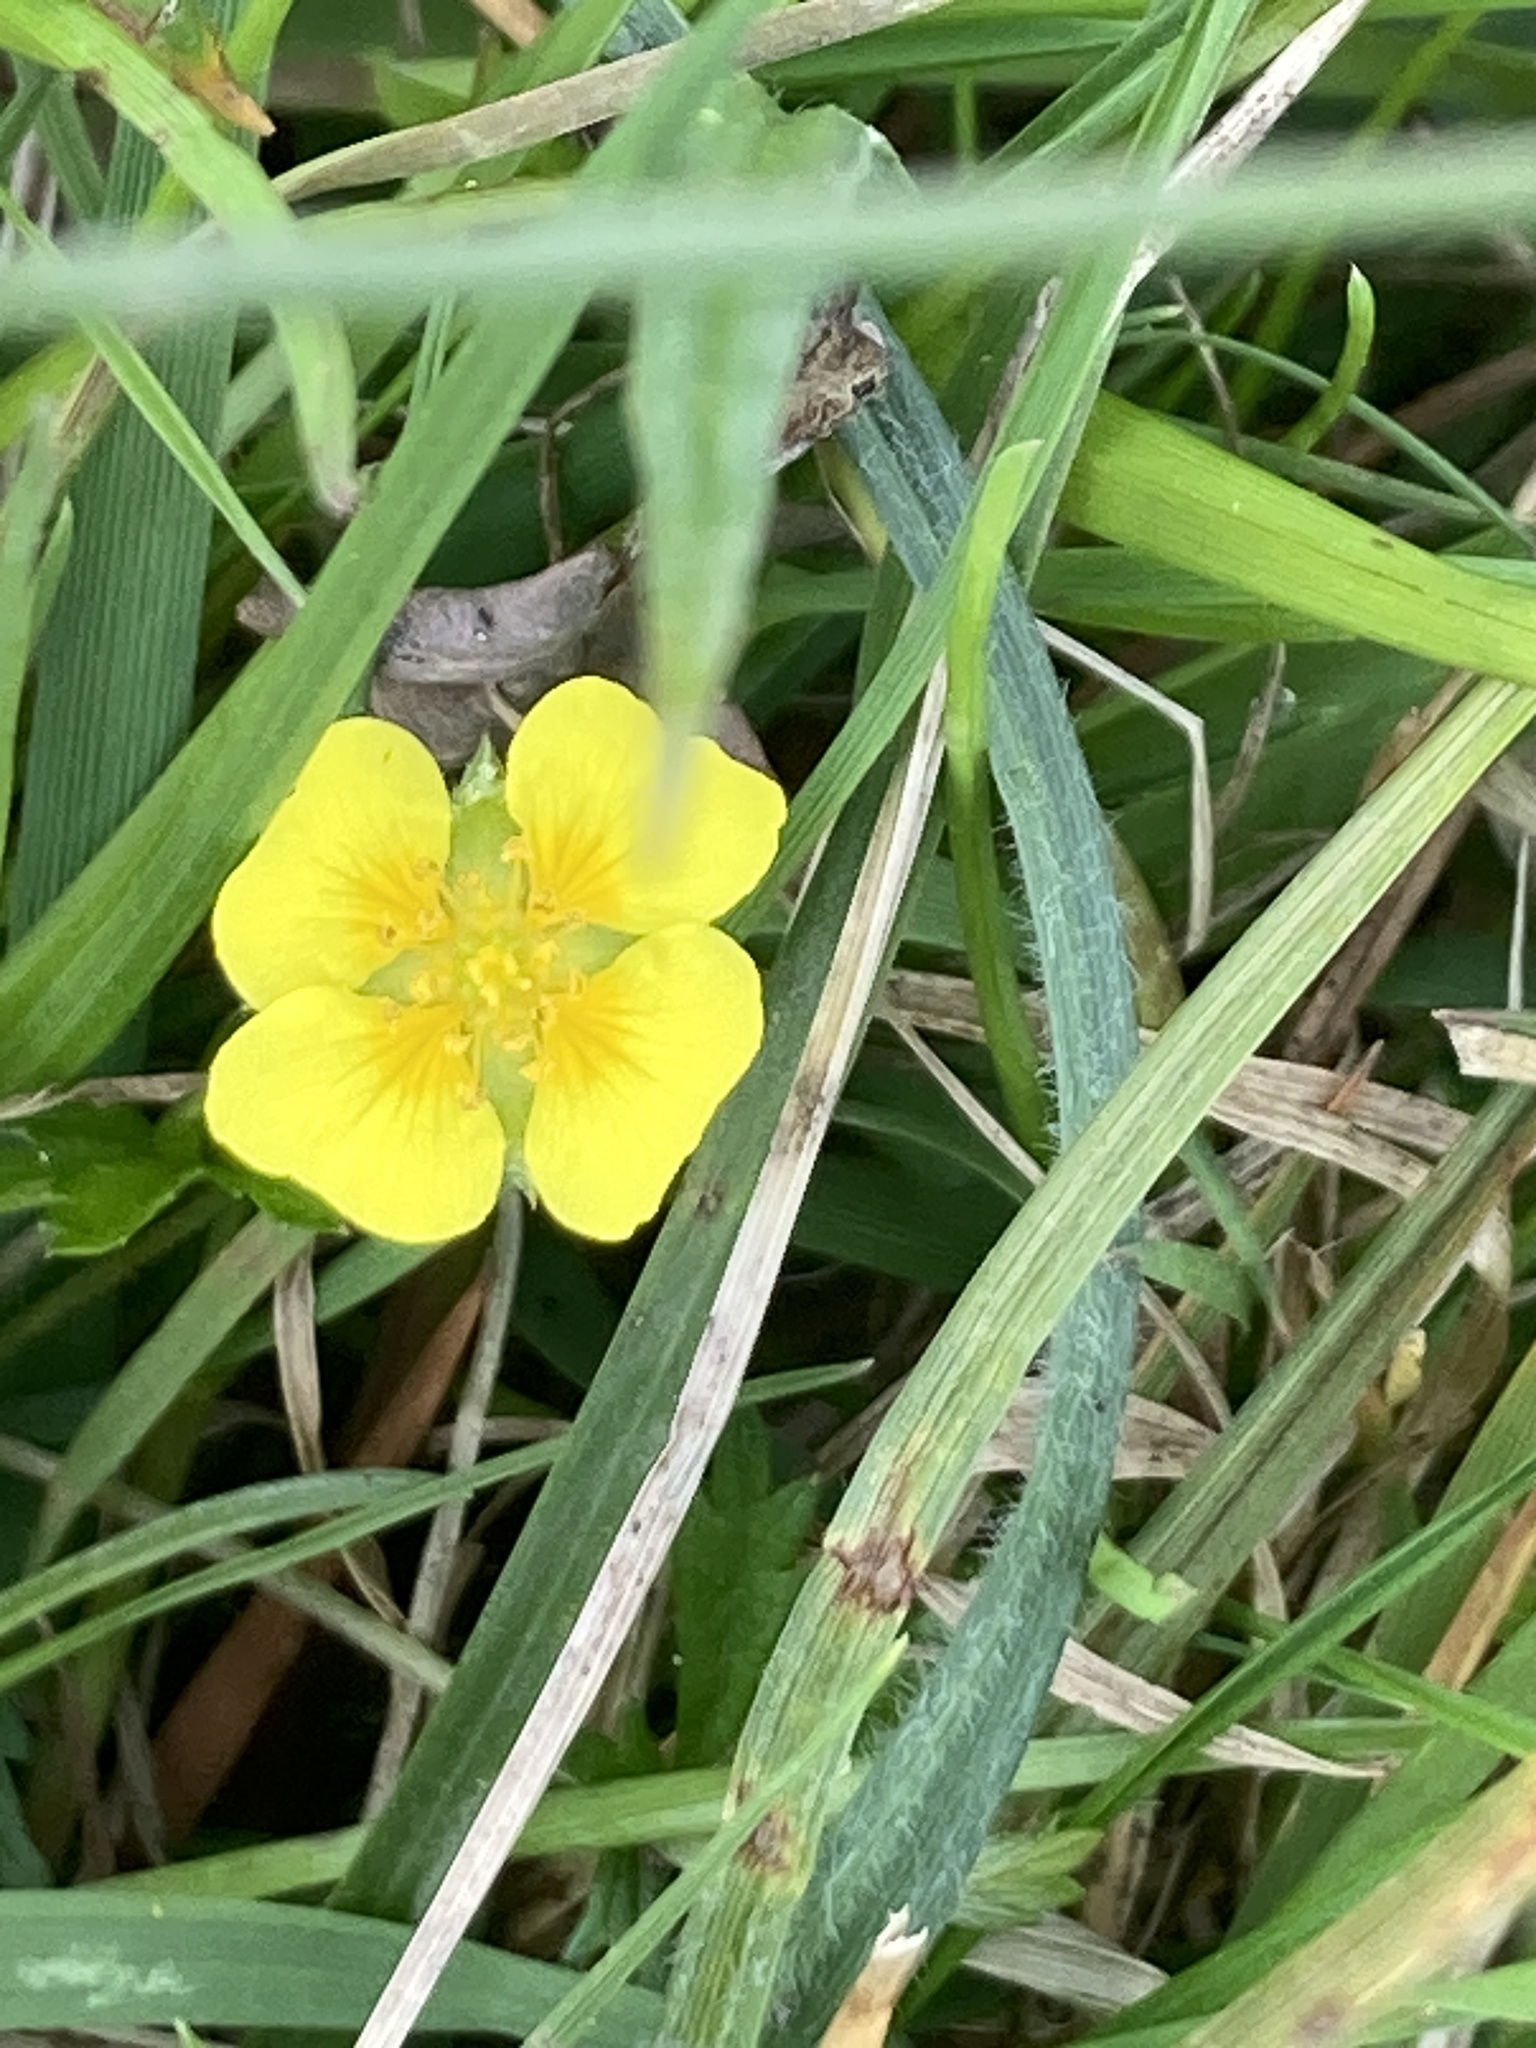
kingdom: Plantae
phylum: Tracheophyta
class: Magnoliopsida
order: Rosales
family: Rosaceae
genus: Potentilla
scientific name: Potentilla erecta
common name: Tormentil
